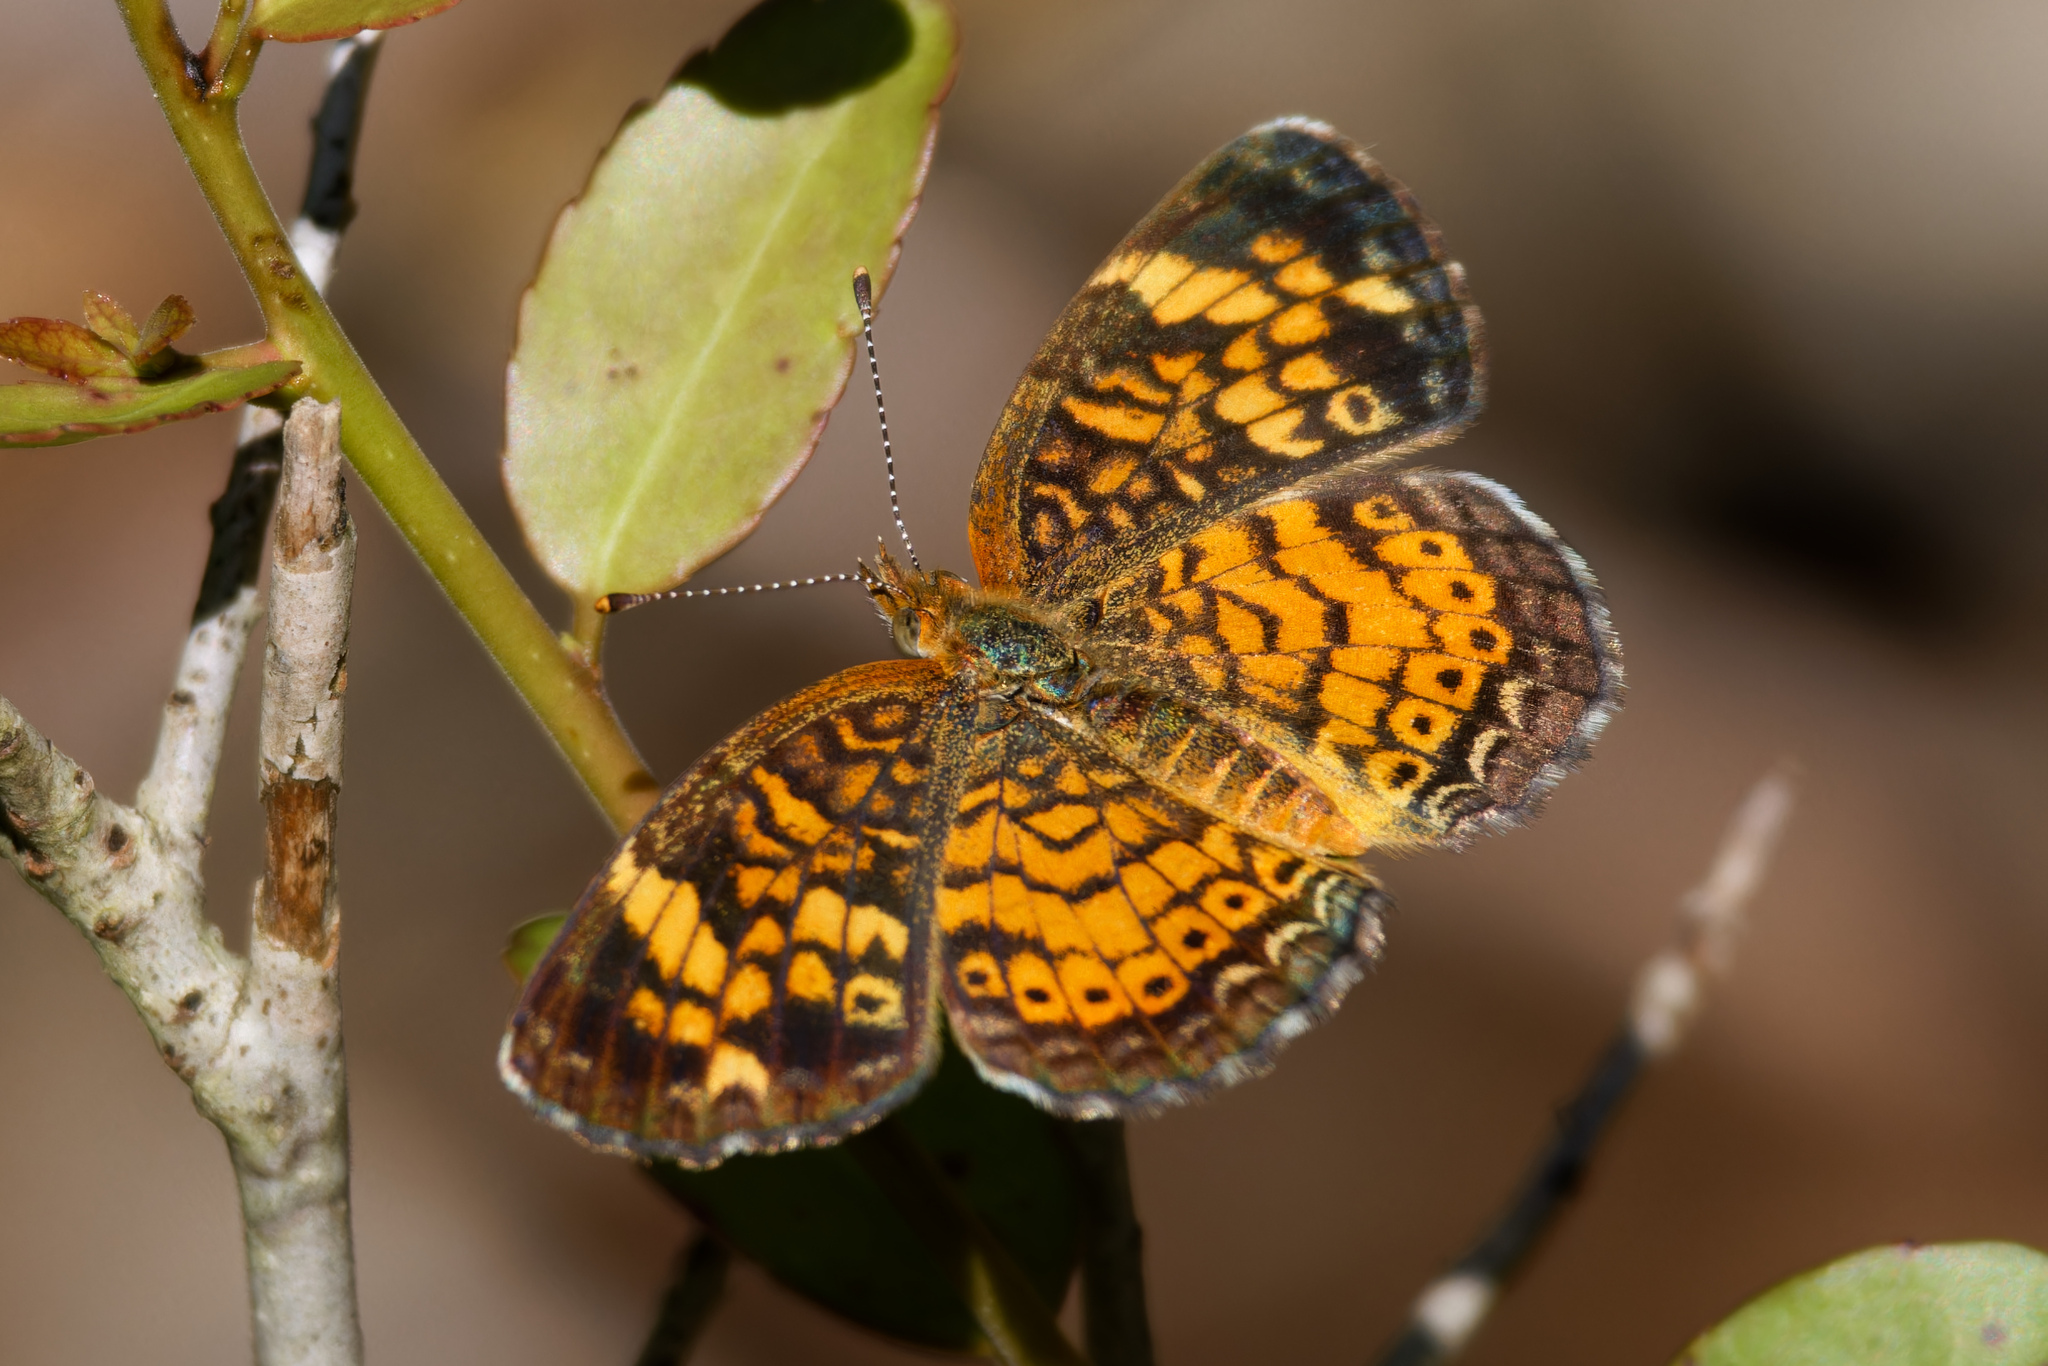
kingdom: Animalia
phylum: Arthropoda
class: Insecta
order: Lepidoptera
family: Nymphalidae
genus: Phyciodes
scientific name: Phyciodes tharos
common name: Pearl crescent
